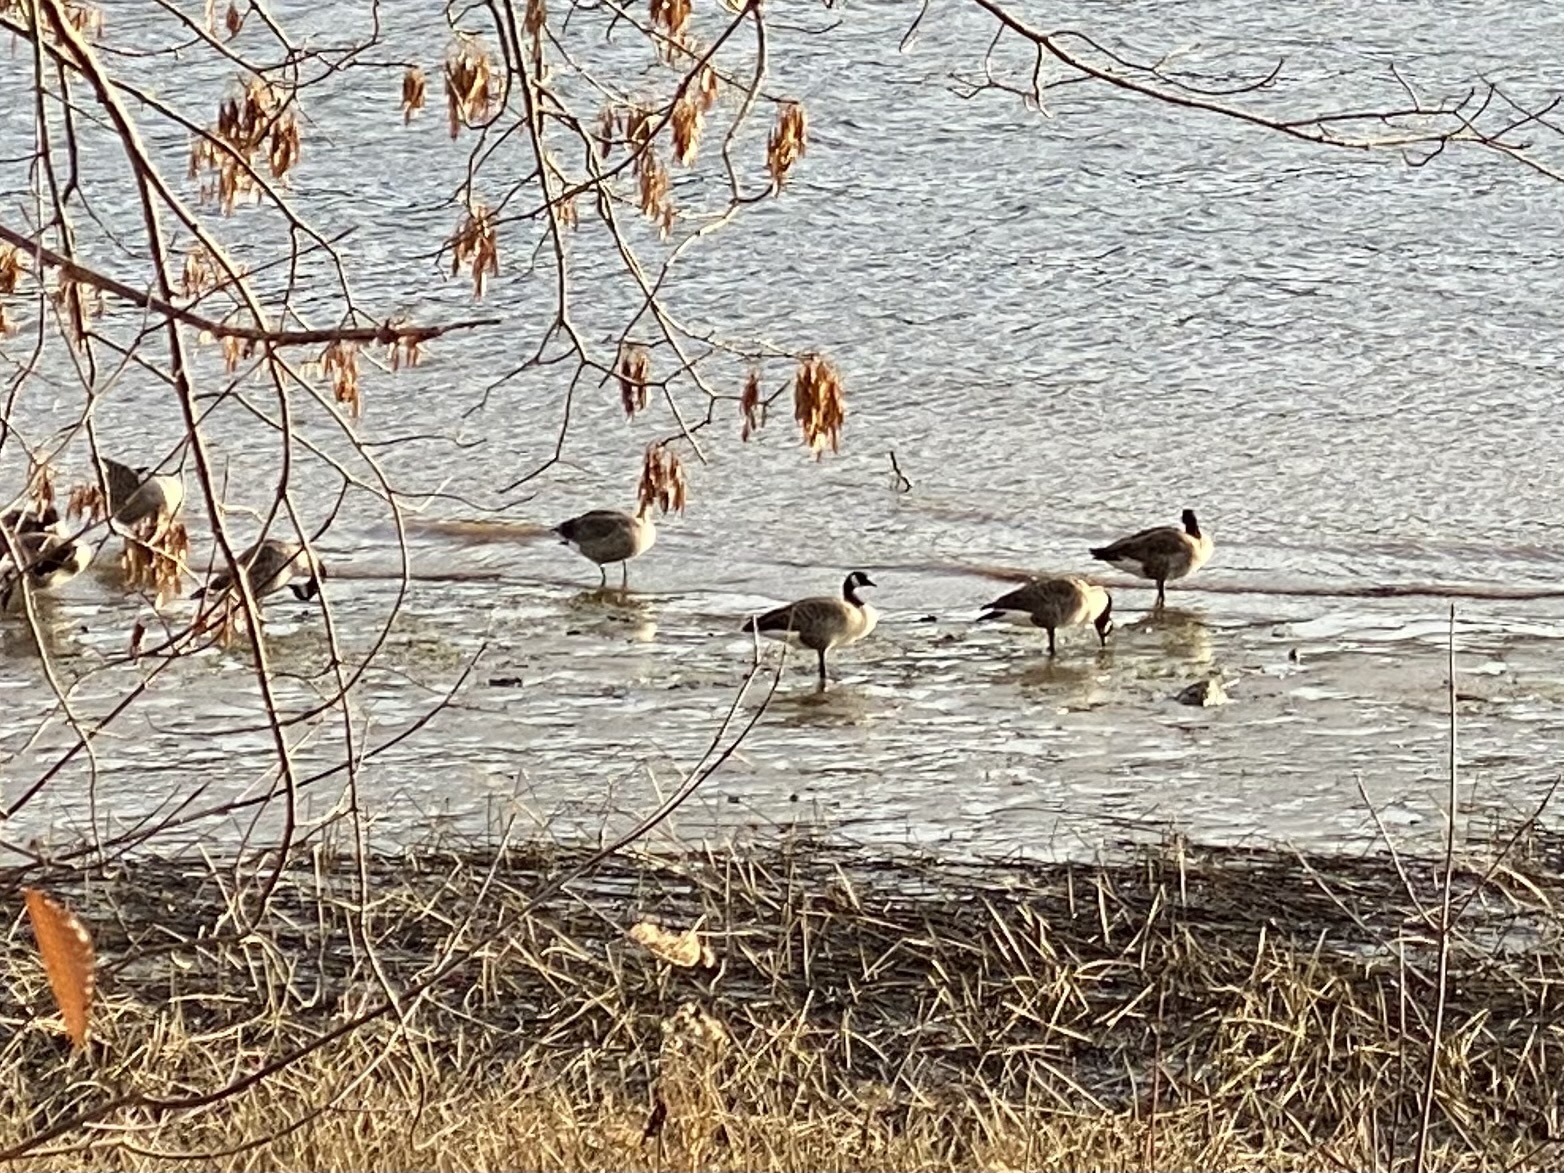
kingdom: Animalia
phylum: Chordata
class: Aves
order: Anseriformes
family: Anatidae
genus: Branta
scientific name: Branta canadensis
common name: Canada goose
